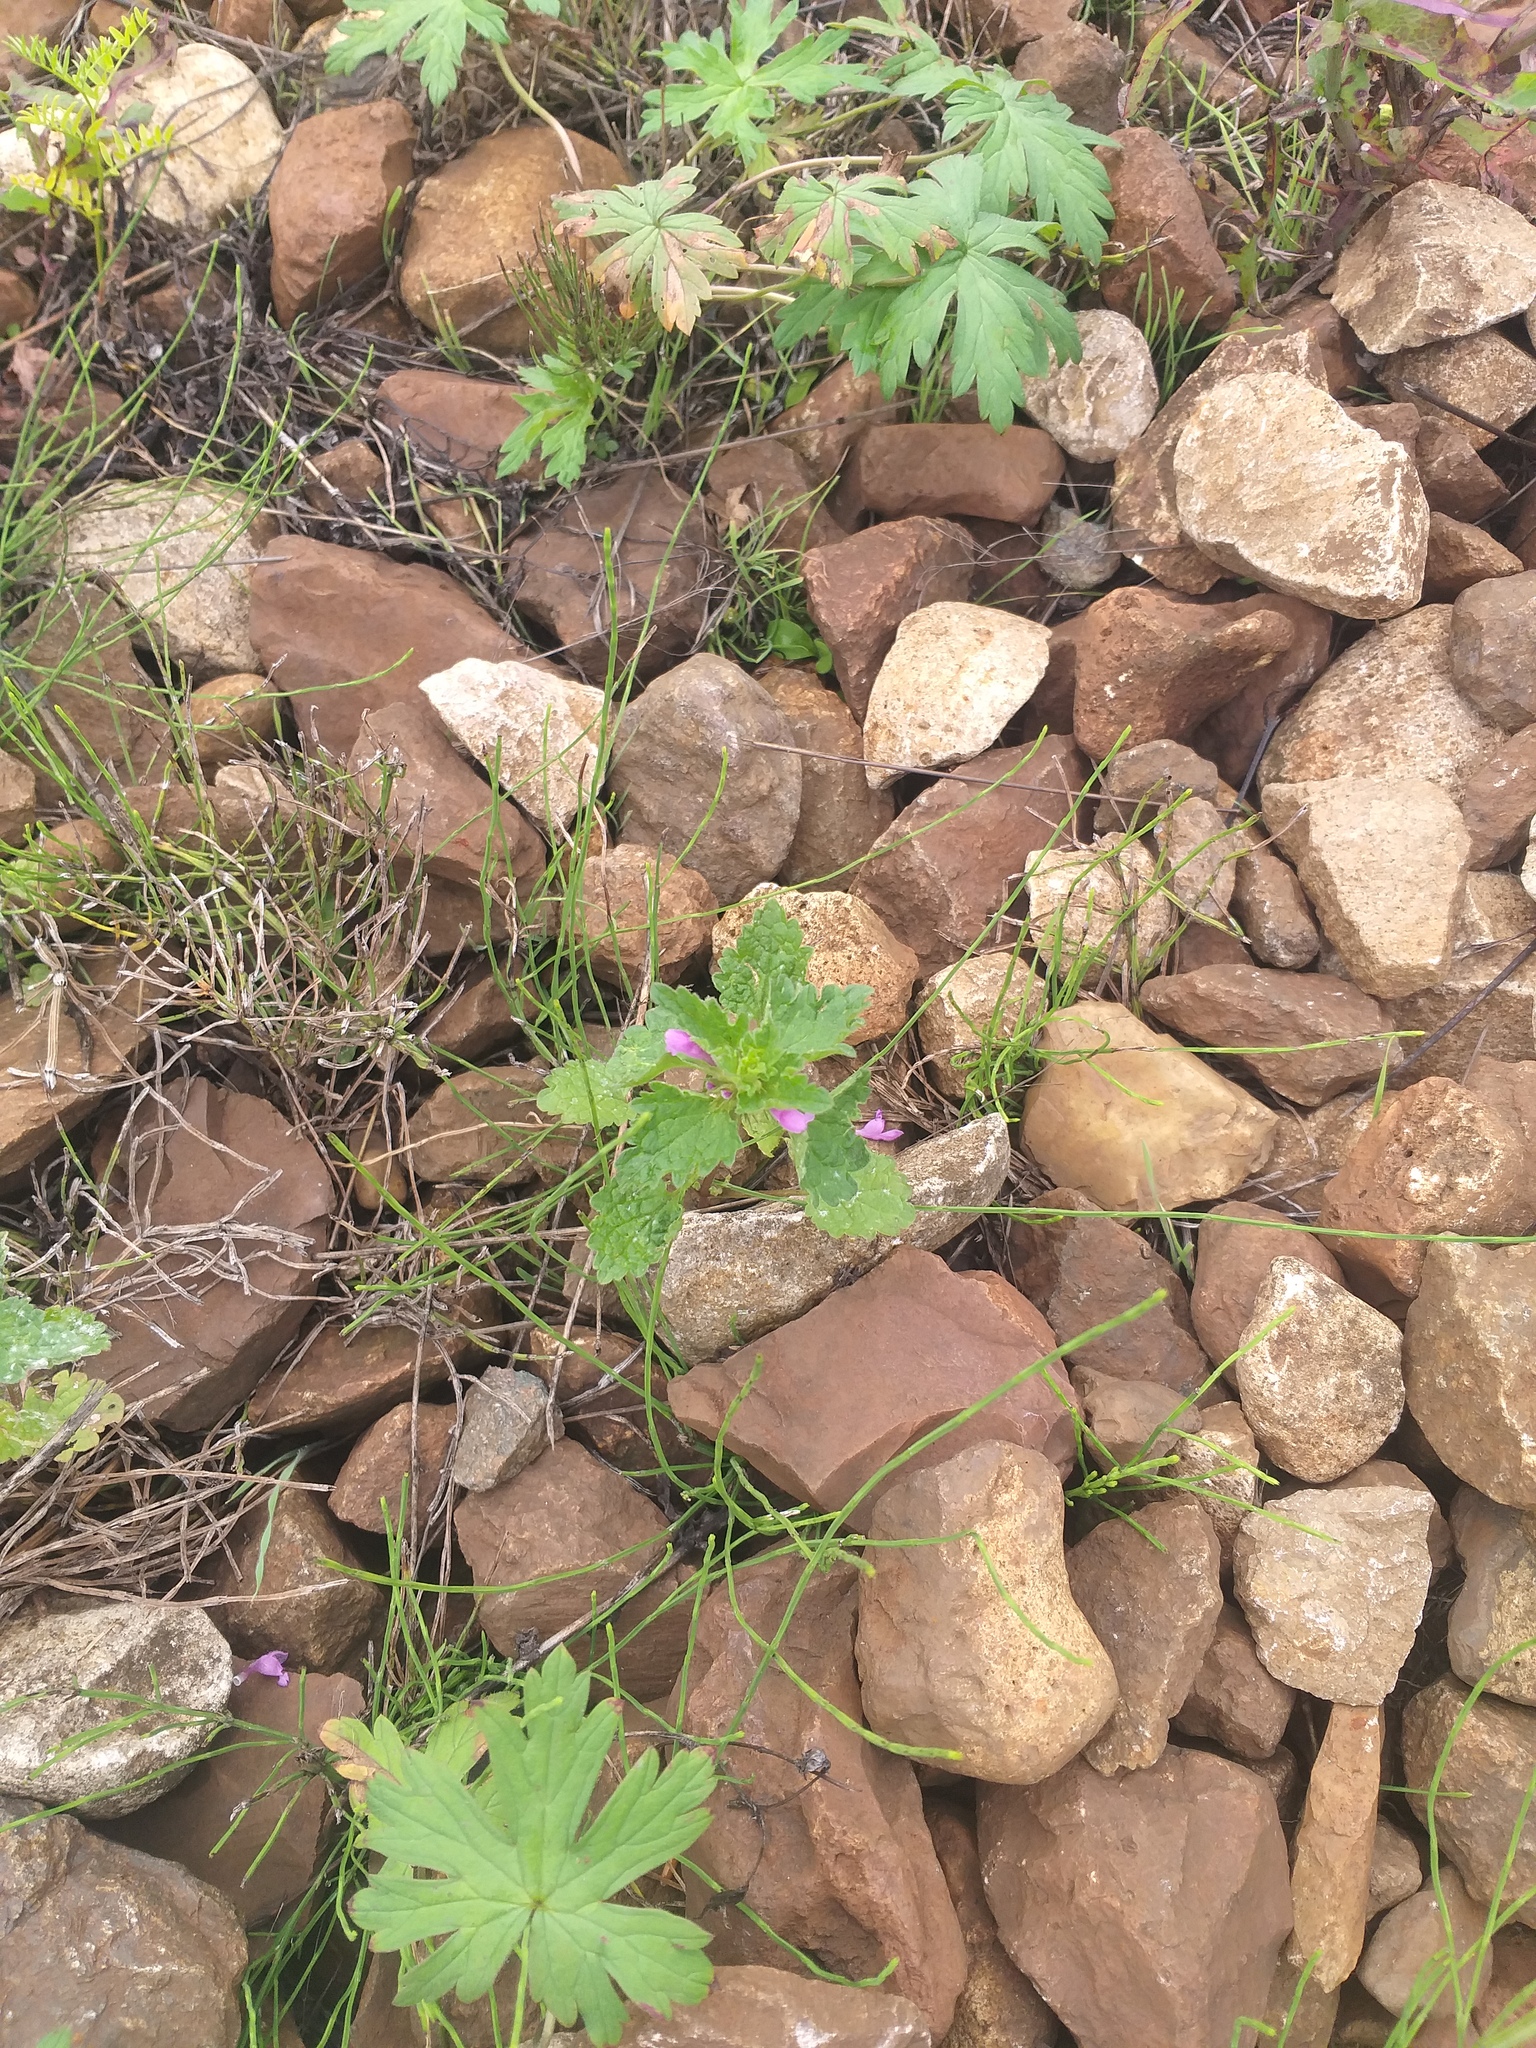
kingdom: Plantae
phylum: Tracheophyta
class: Magnoliopsida
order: Lamiales
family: Lamiaceae
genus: Lamium
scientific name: Lamium purpureum
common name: Red dead-nettle
